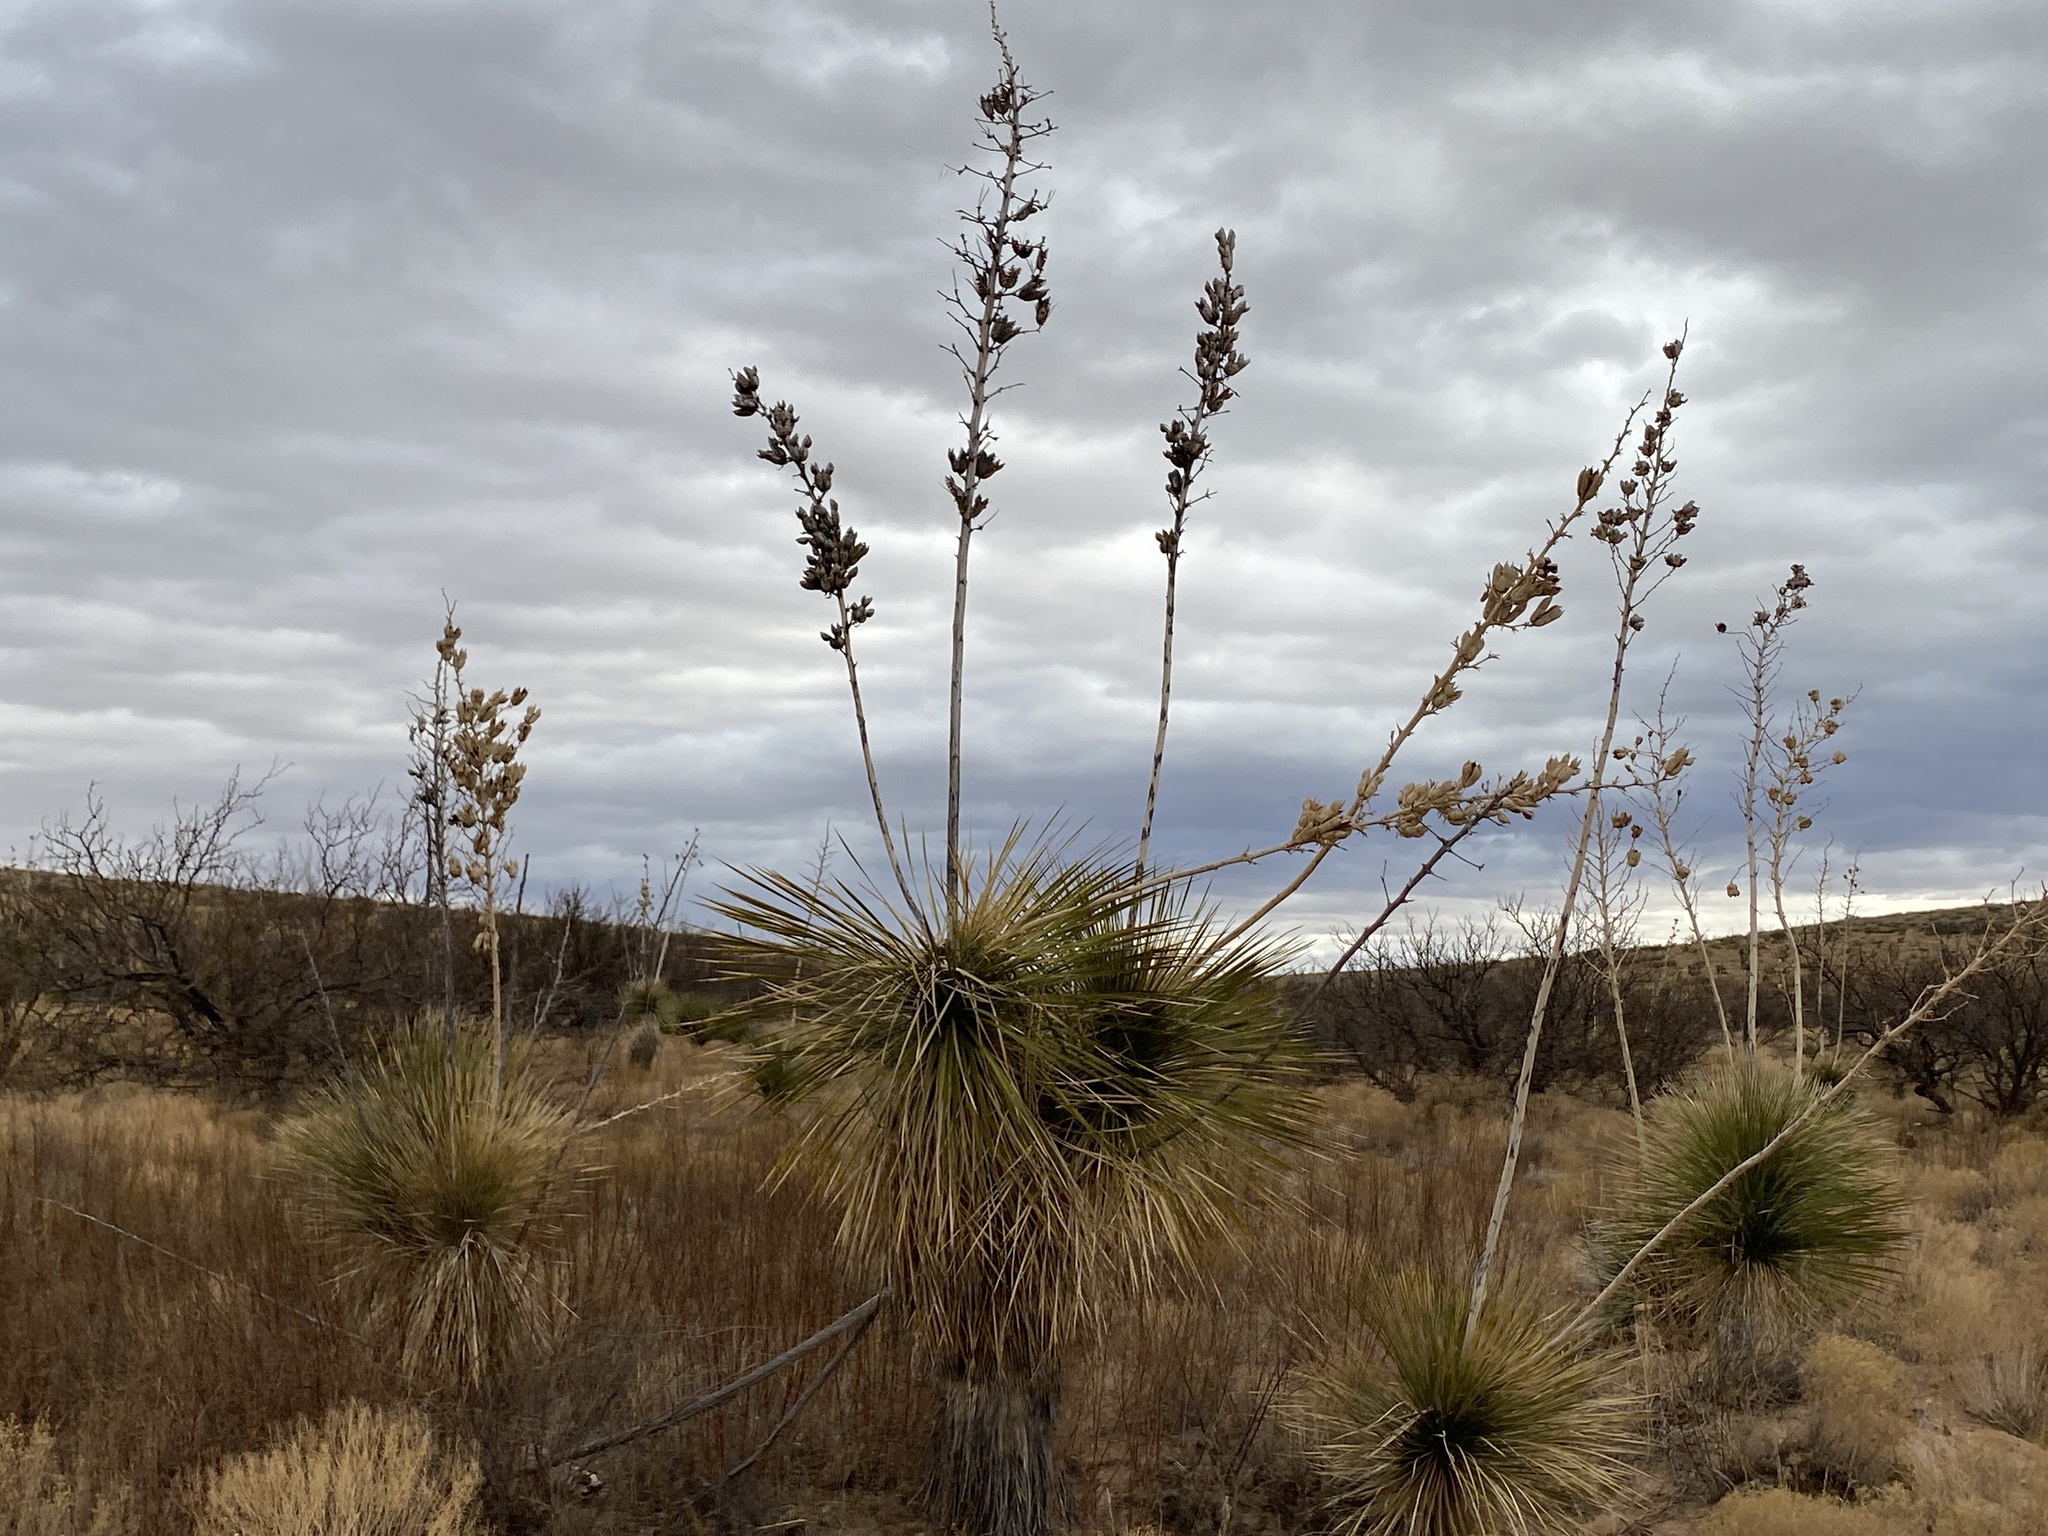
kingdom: Plantae
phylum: Tracheophyta
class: Liliopsida
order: Asparagales
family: Asparagaceae
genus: Yucca
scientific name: Yucca elata
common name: Palmella
